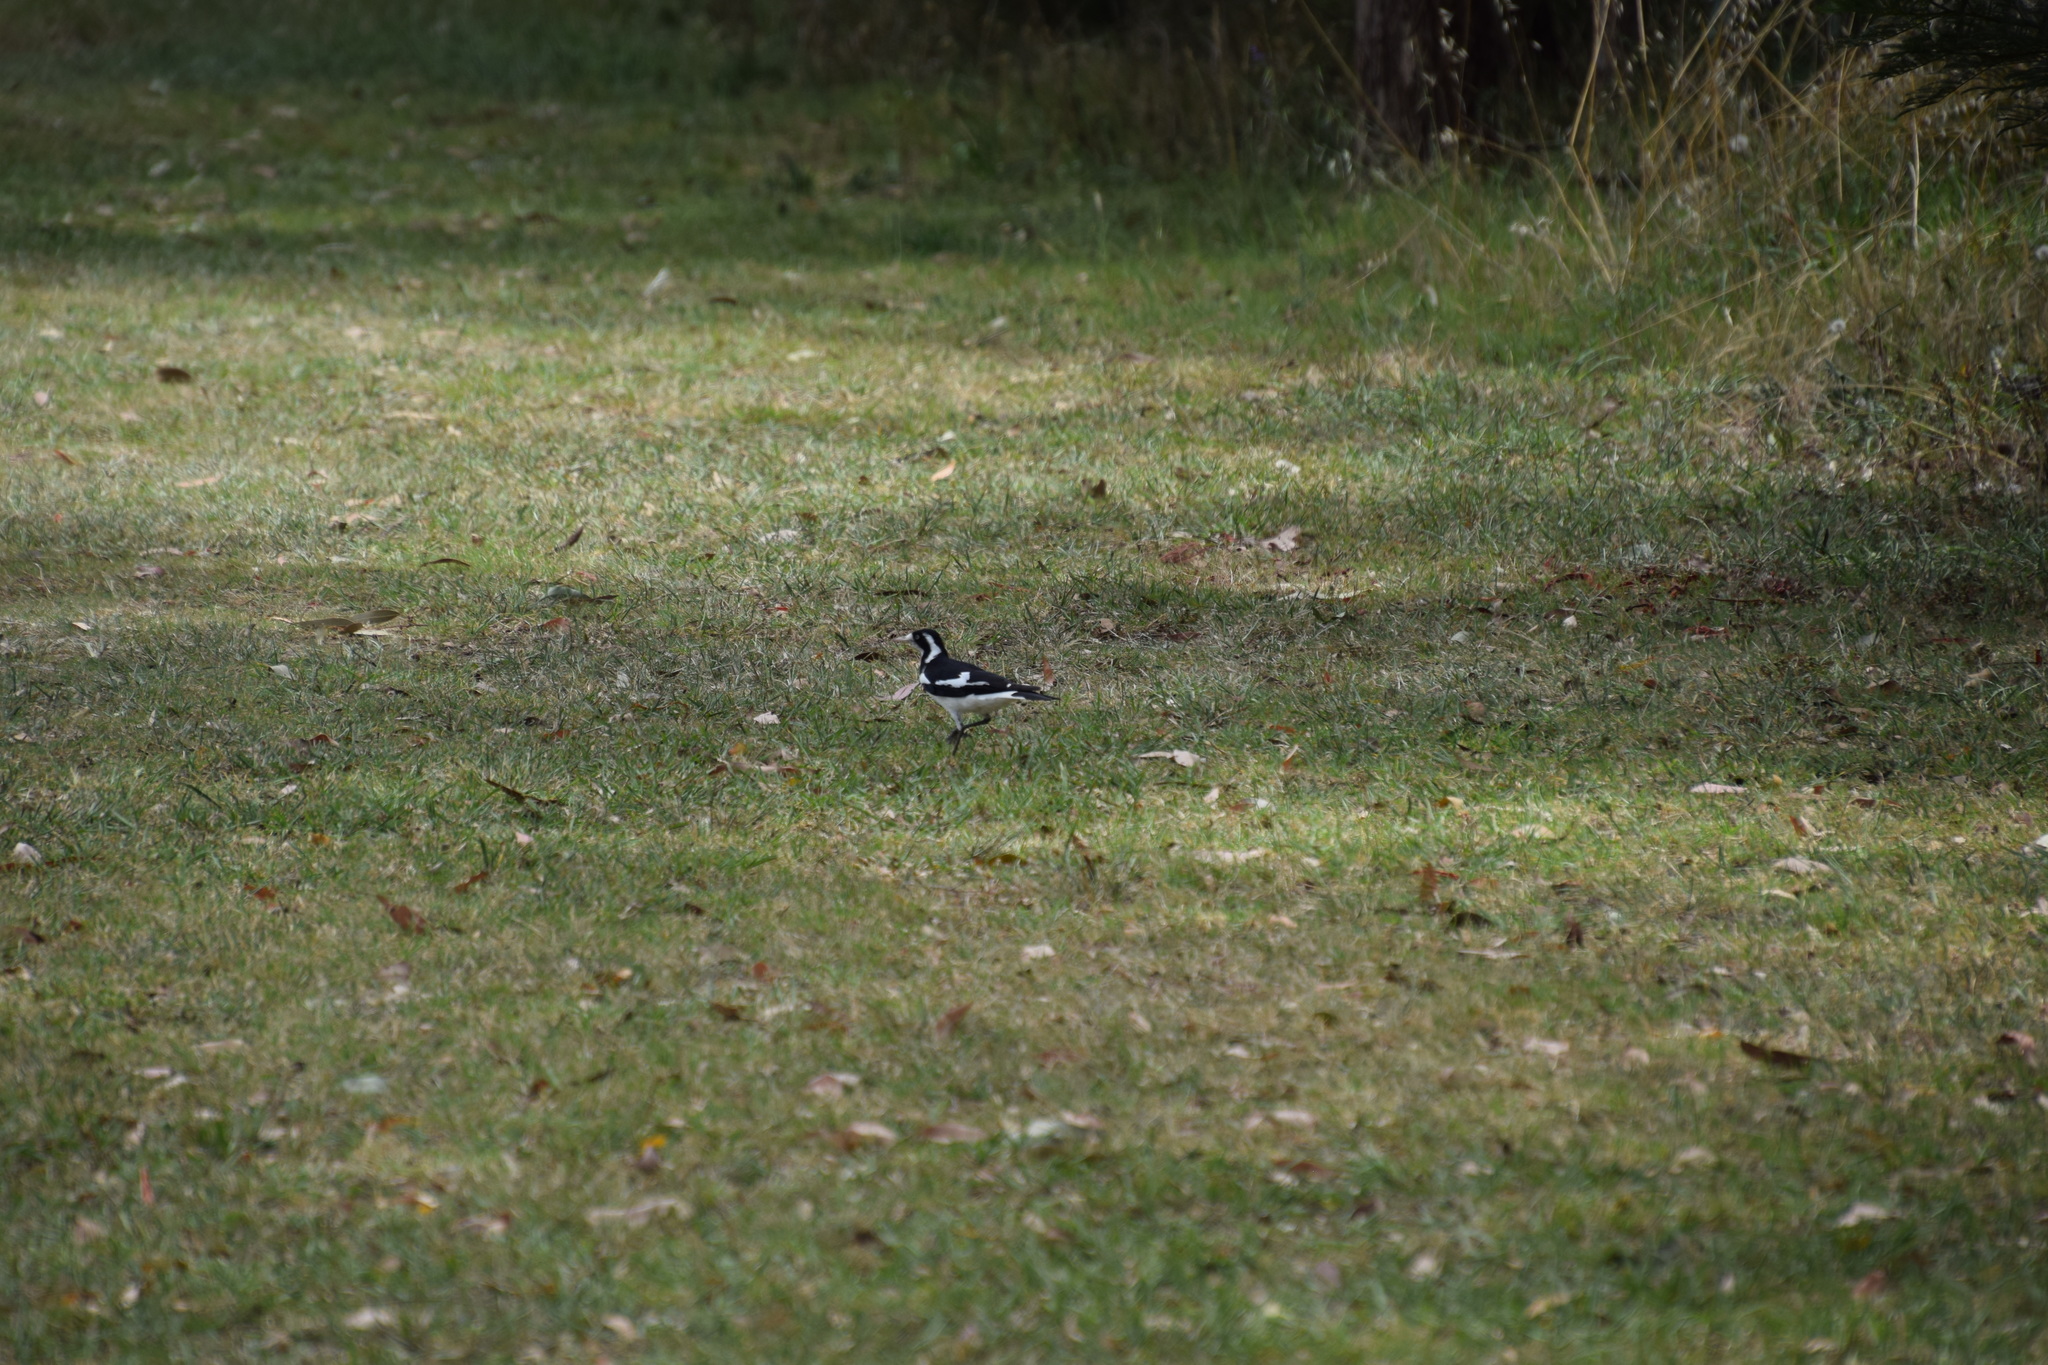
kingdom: Animalia
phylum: Chordata
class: Aves
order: Passeriformes
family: Monarchidae
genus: Grallina
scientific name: Grallina cyanoleuca
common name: Magpie-lark
